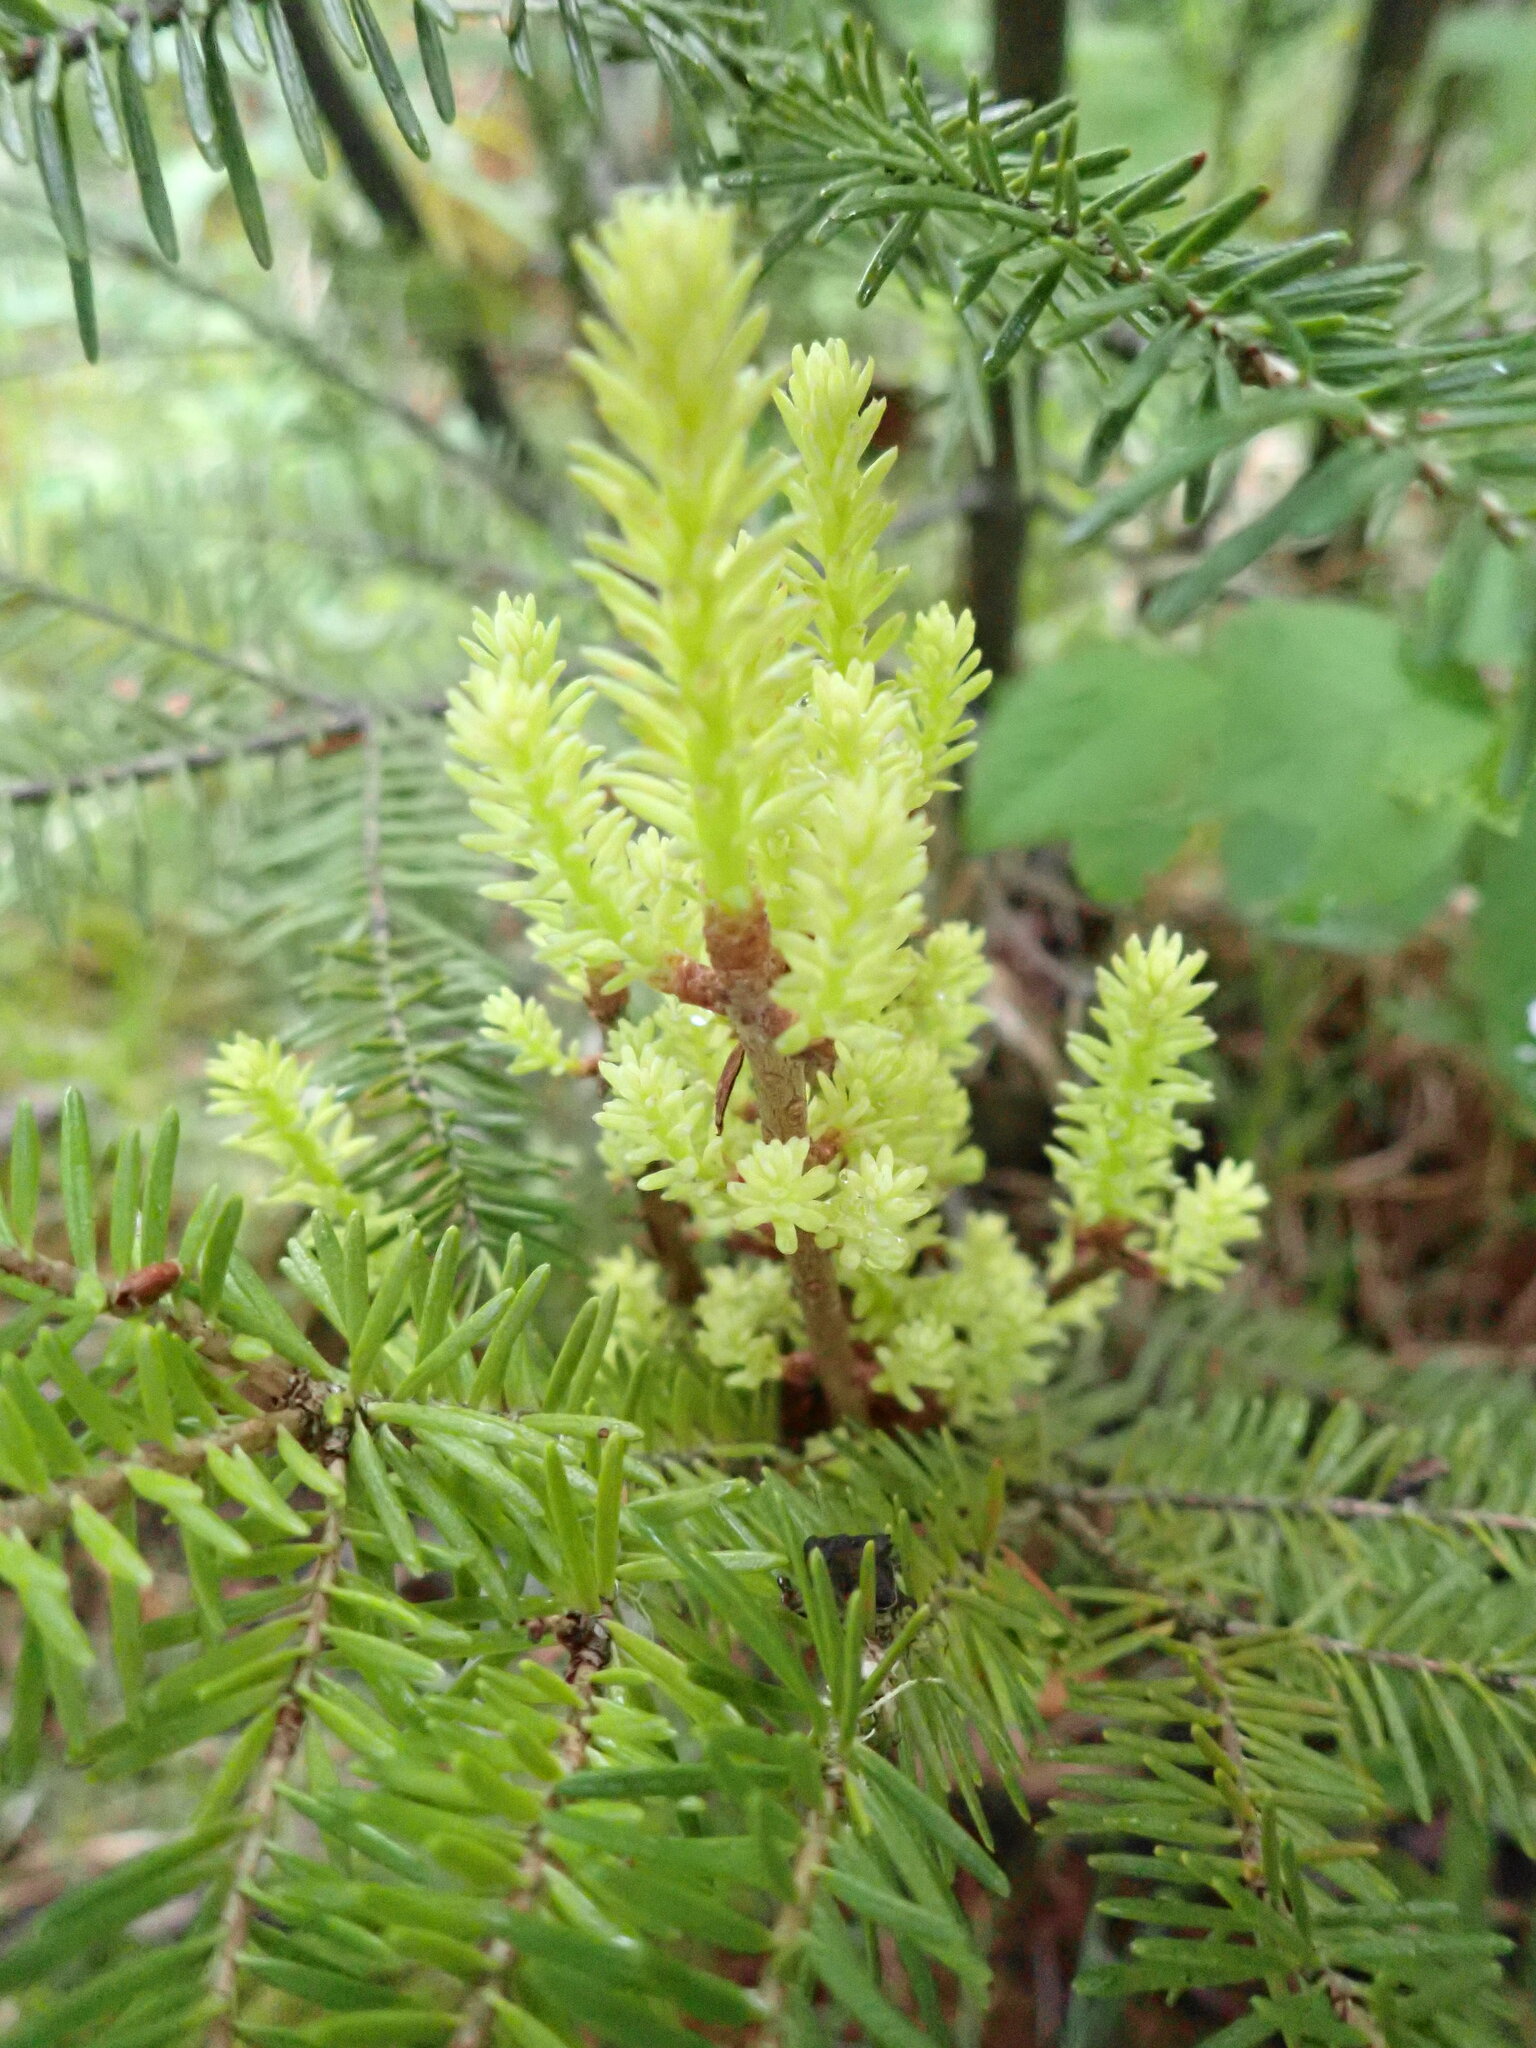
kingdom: Plantae
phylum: Tracheophyta
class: Magnoliopsida
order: Santalales
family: Viscaceae
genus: Arceuthobium
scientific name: Arceuthobium pusillum
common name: Dwarf-mistletoe
